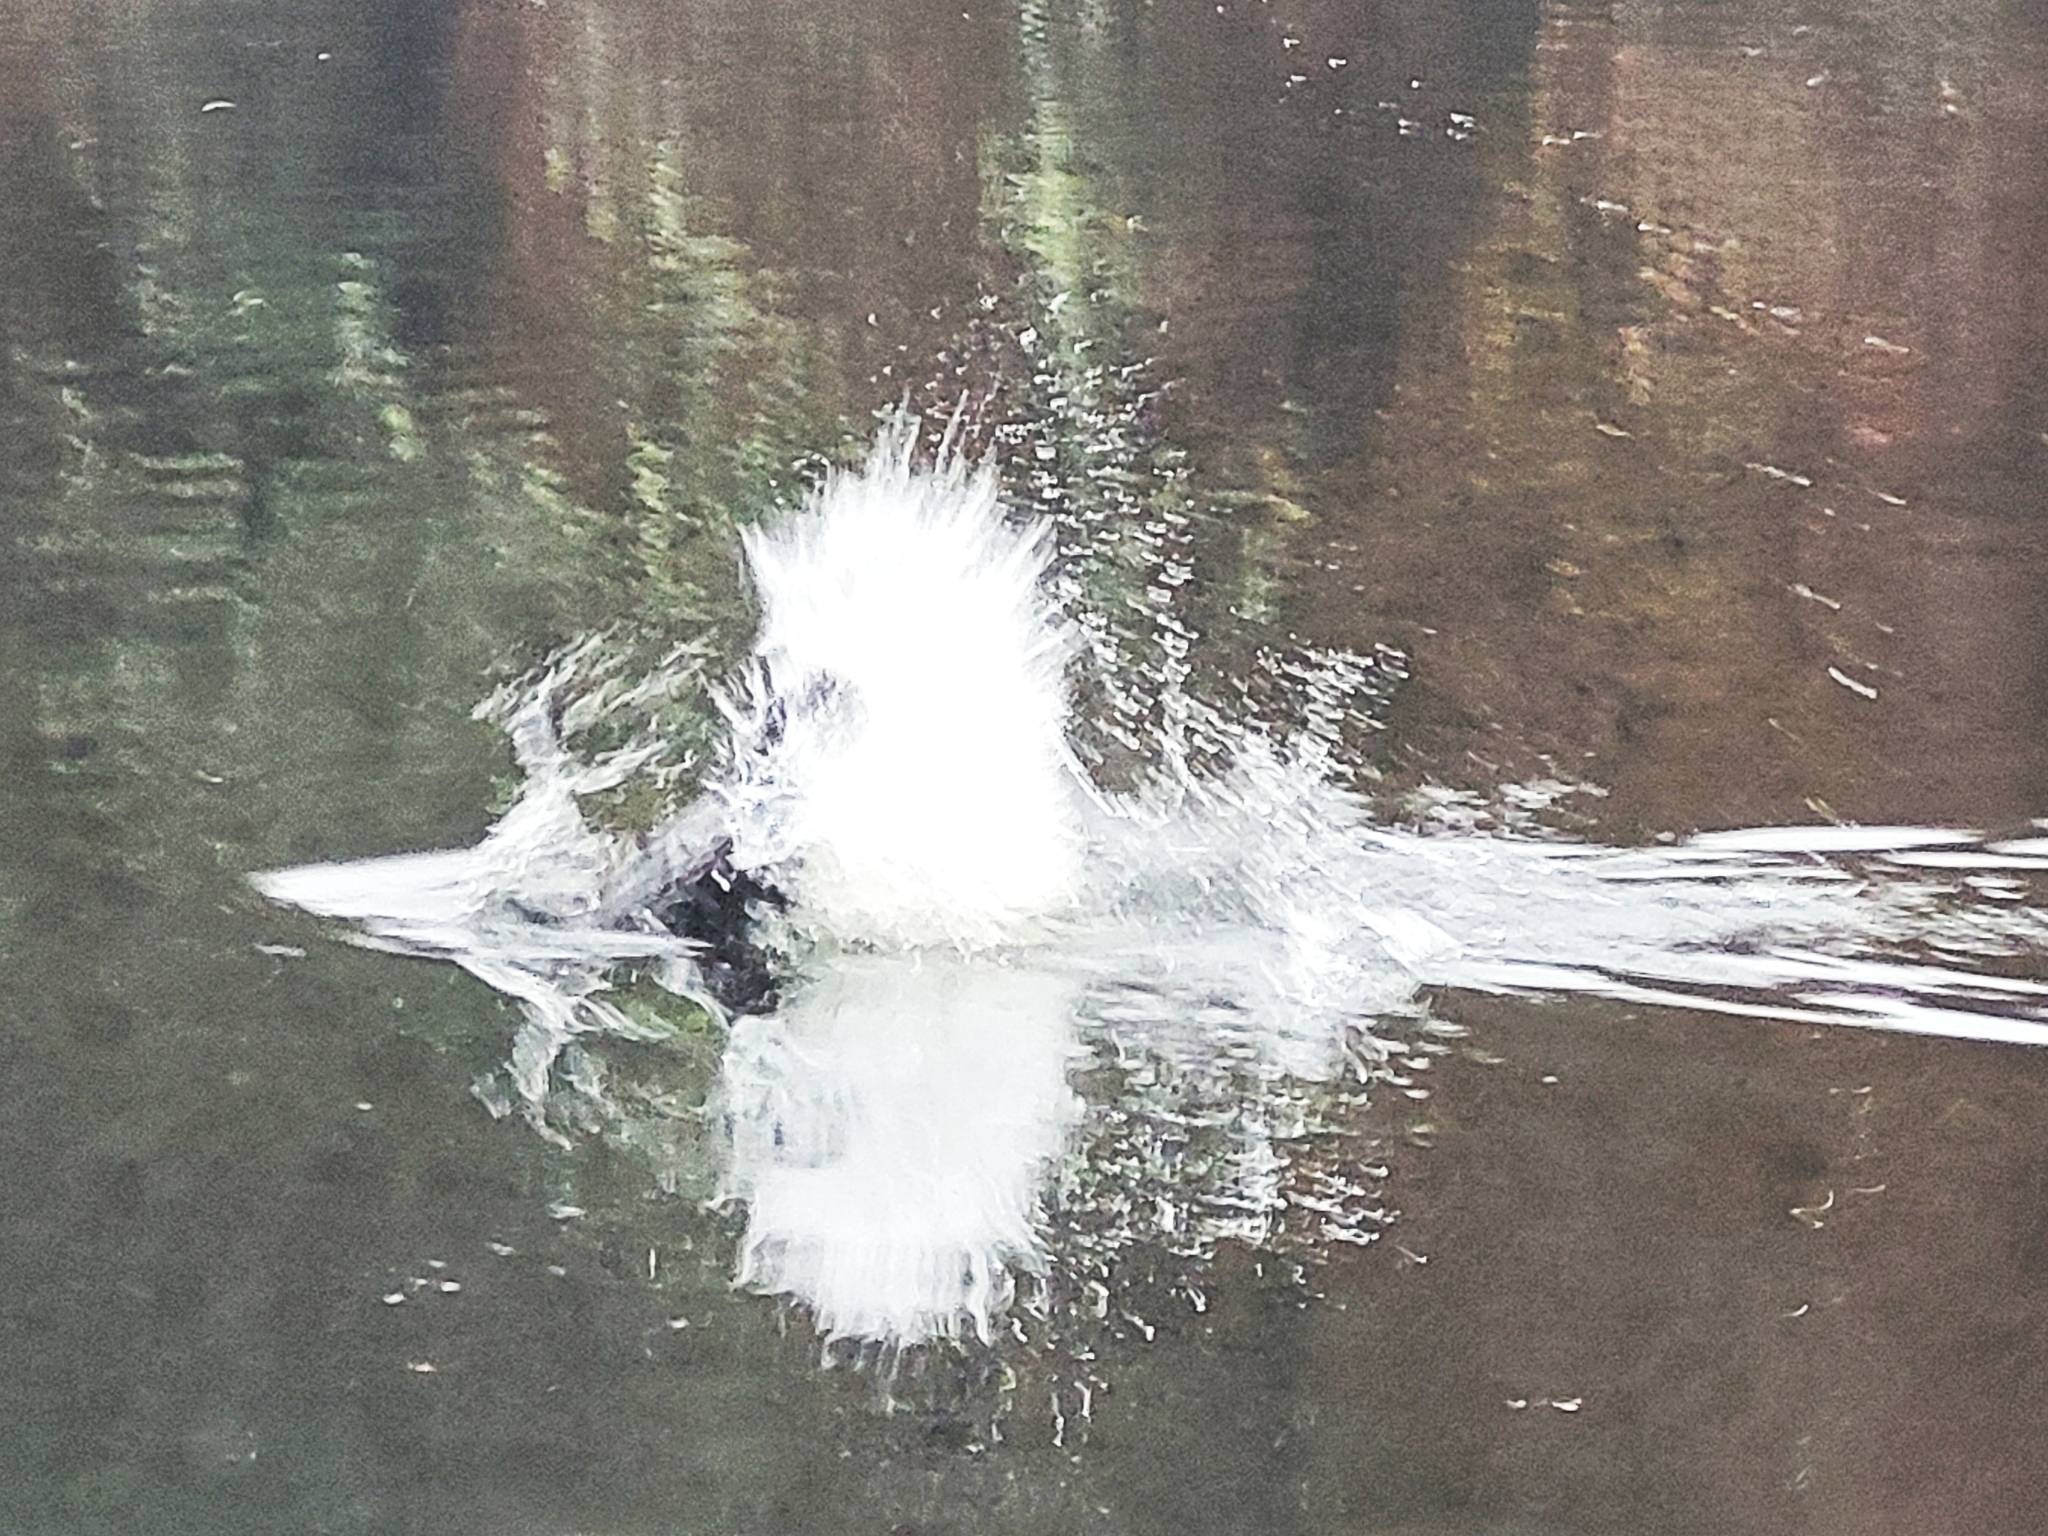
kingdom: Animalia
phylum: Chordata
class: Mammalia
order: Rodentia
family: Castoridae
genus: Castor
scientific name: Castor canadensis
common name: American beaver
